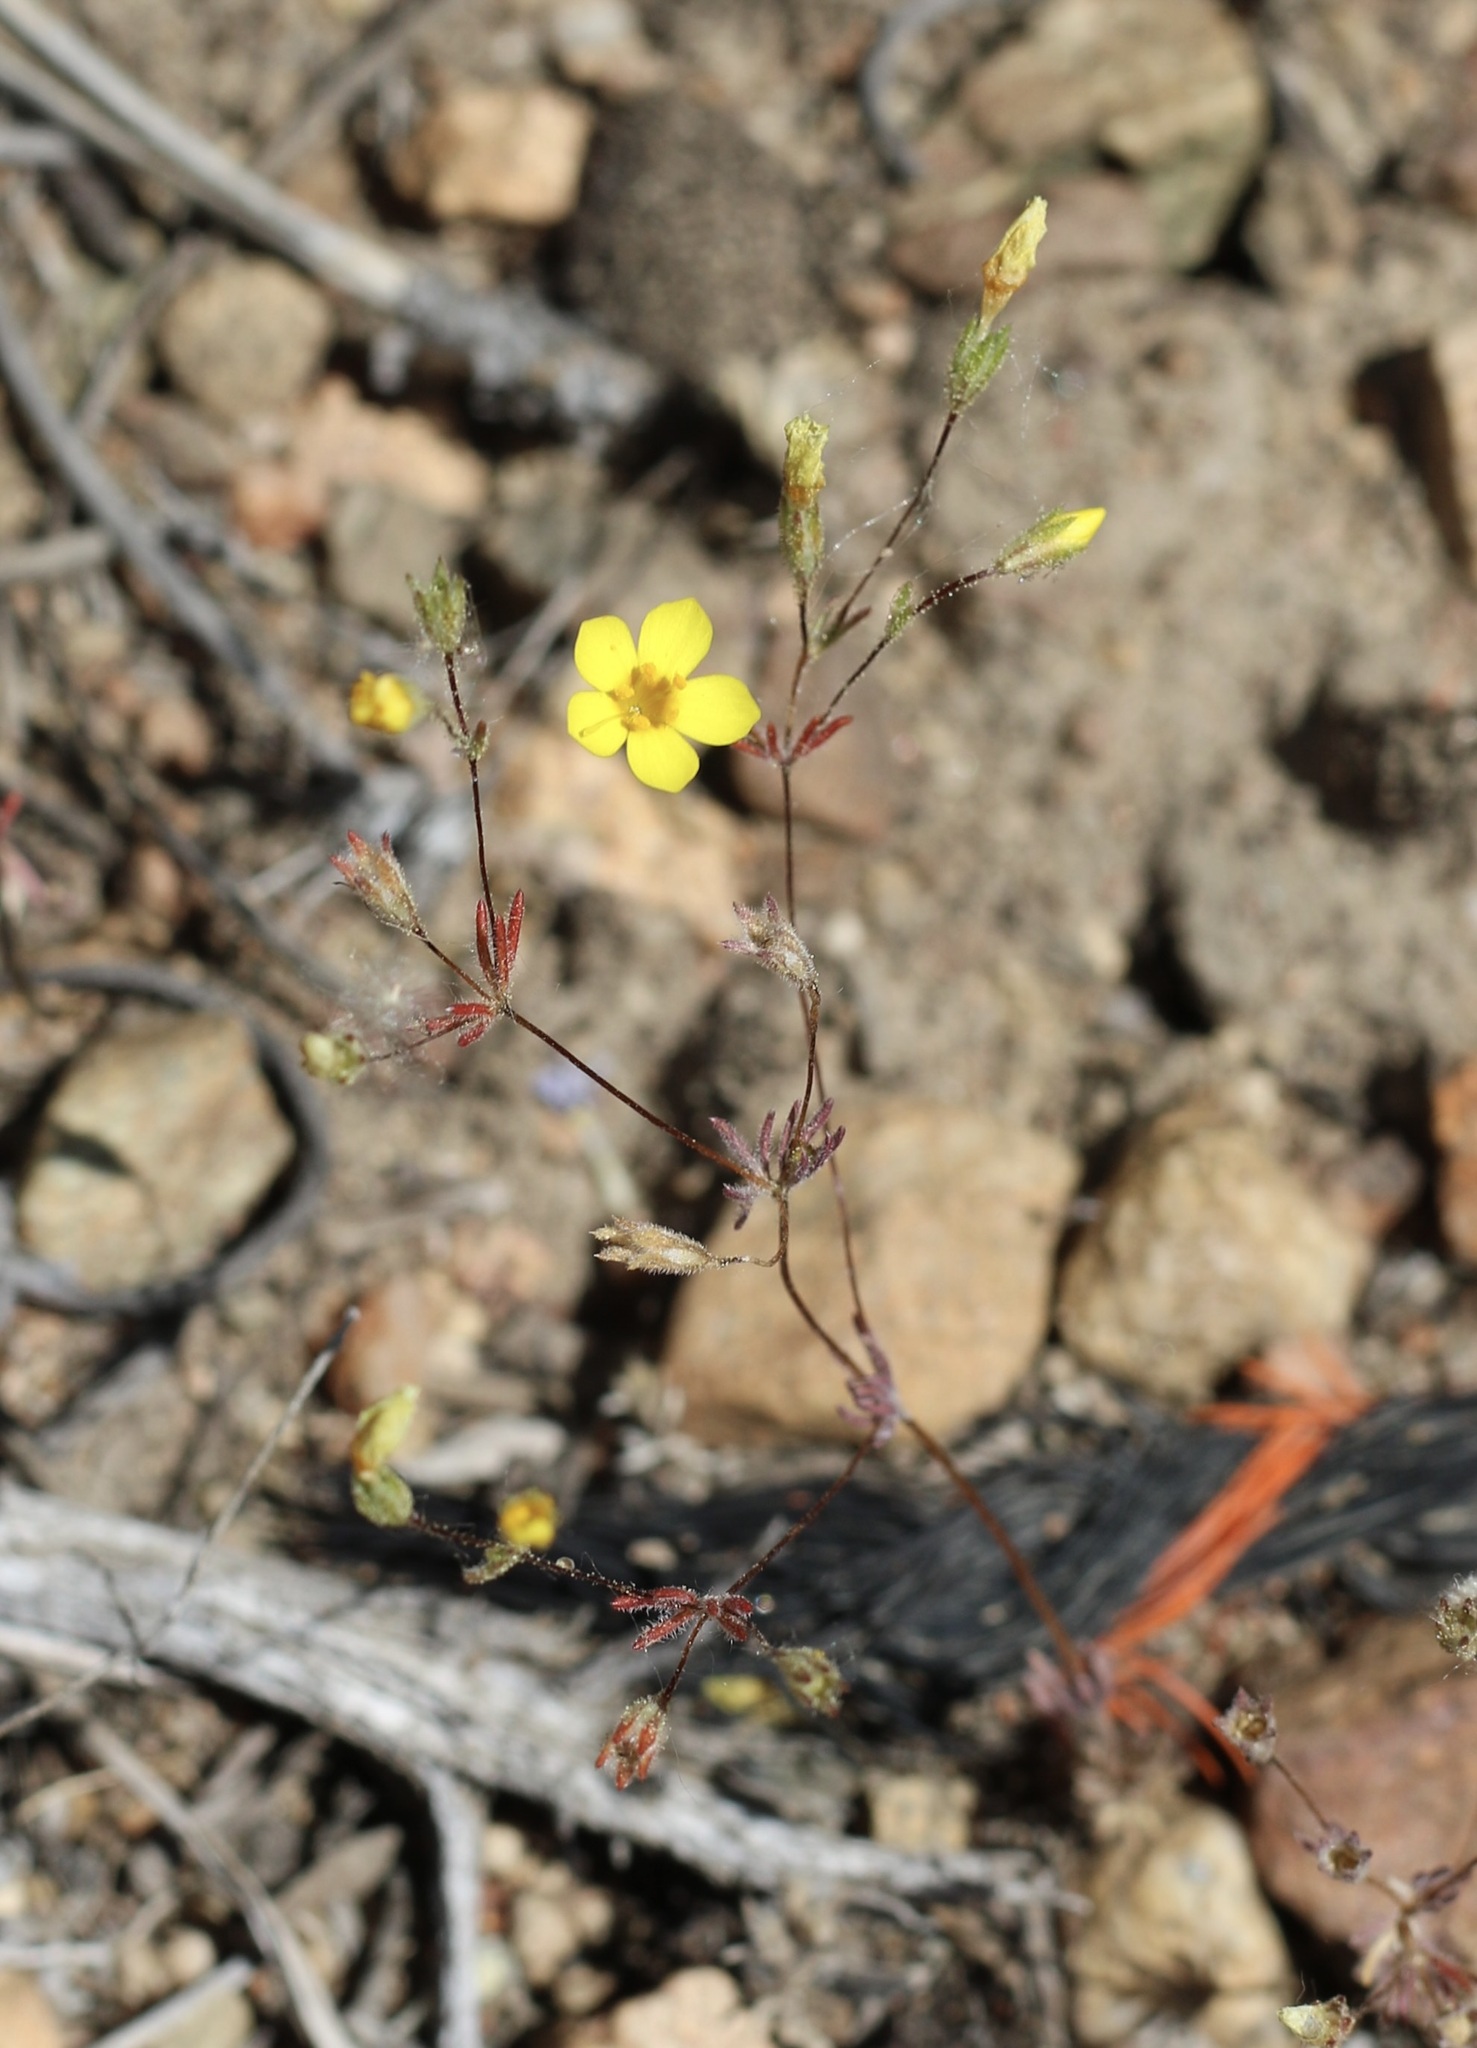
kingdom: Plantae
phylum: Tracheophyta
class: Magnoliopsida
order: Ericales
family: Polemoniaceae
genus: Leptosiphon
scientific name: Leptosiphon chrysanthus
